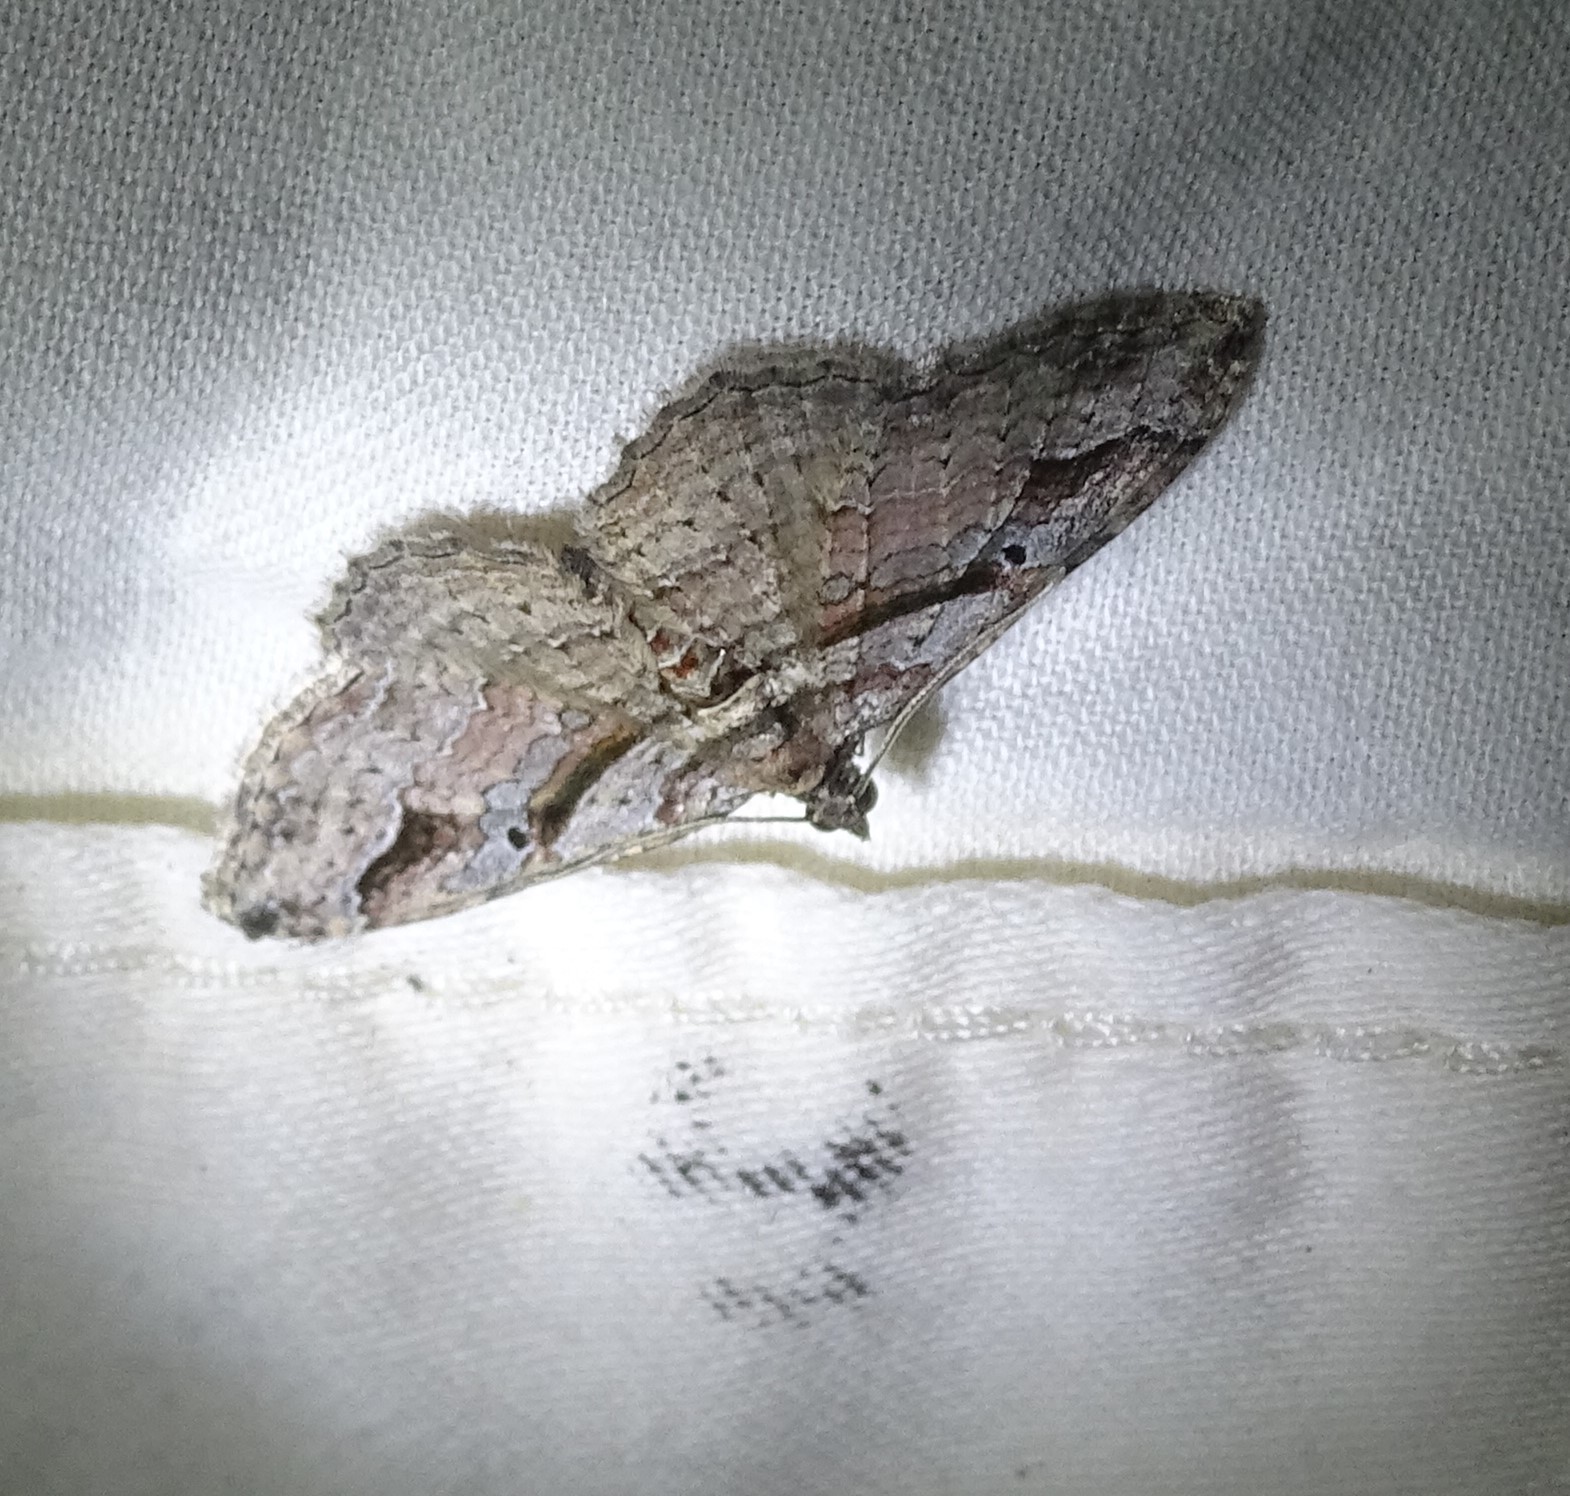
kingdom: Animalia
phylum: Arthropoda
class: Insecta
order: Lepidoptera
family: Geometridae
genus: Costaconvexa
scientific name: Costaconvexa centrostrigaria
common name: Bent-line carpet
